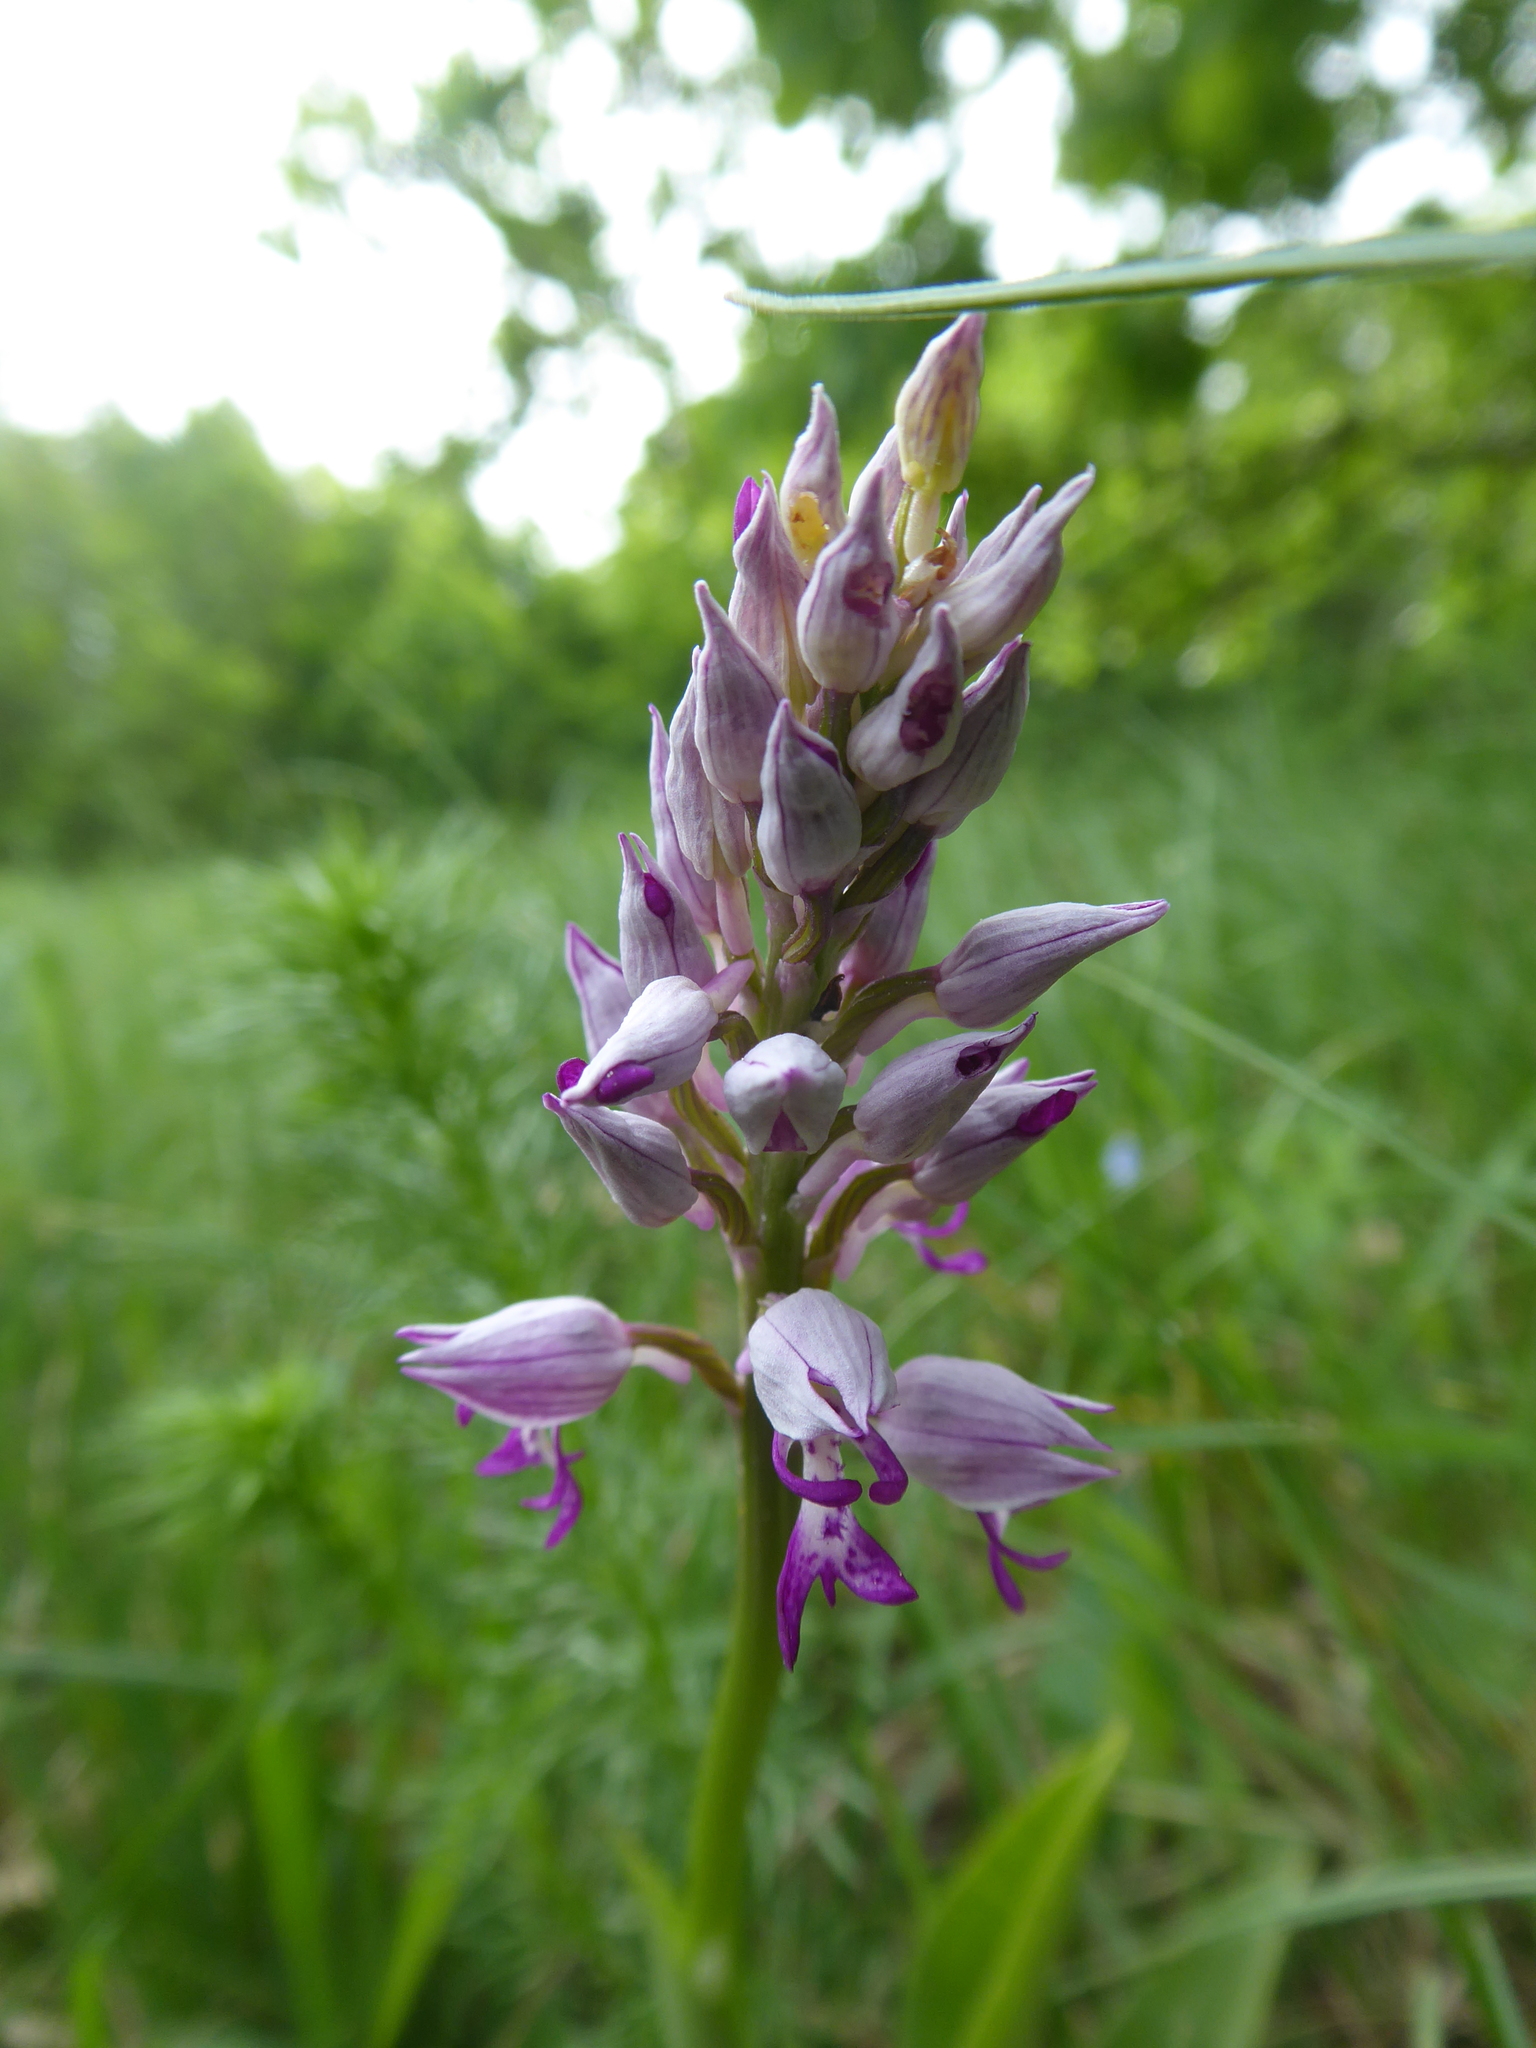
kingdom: Plantae
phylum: Tracheophyta
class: Liliopsida
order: Asparagales
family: Orchidaceae
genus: Orchis
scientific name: Orchis militaris
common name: Military orchid
